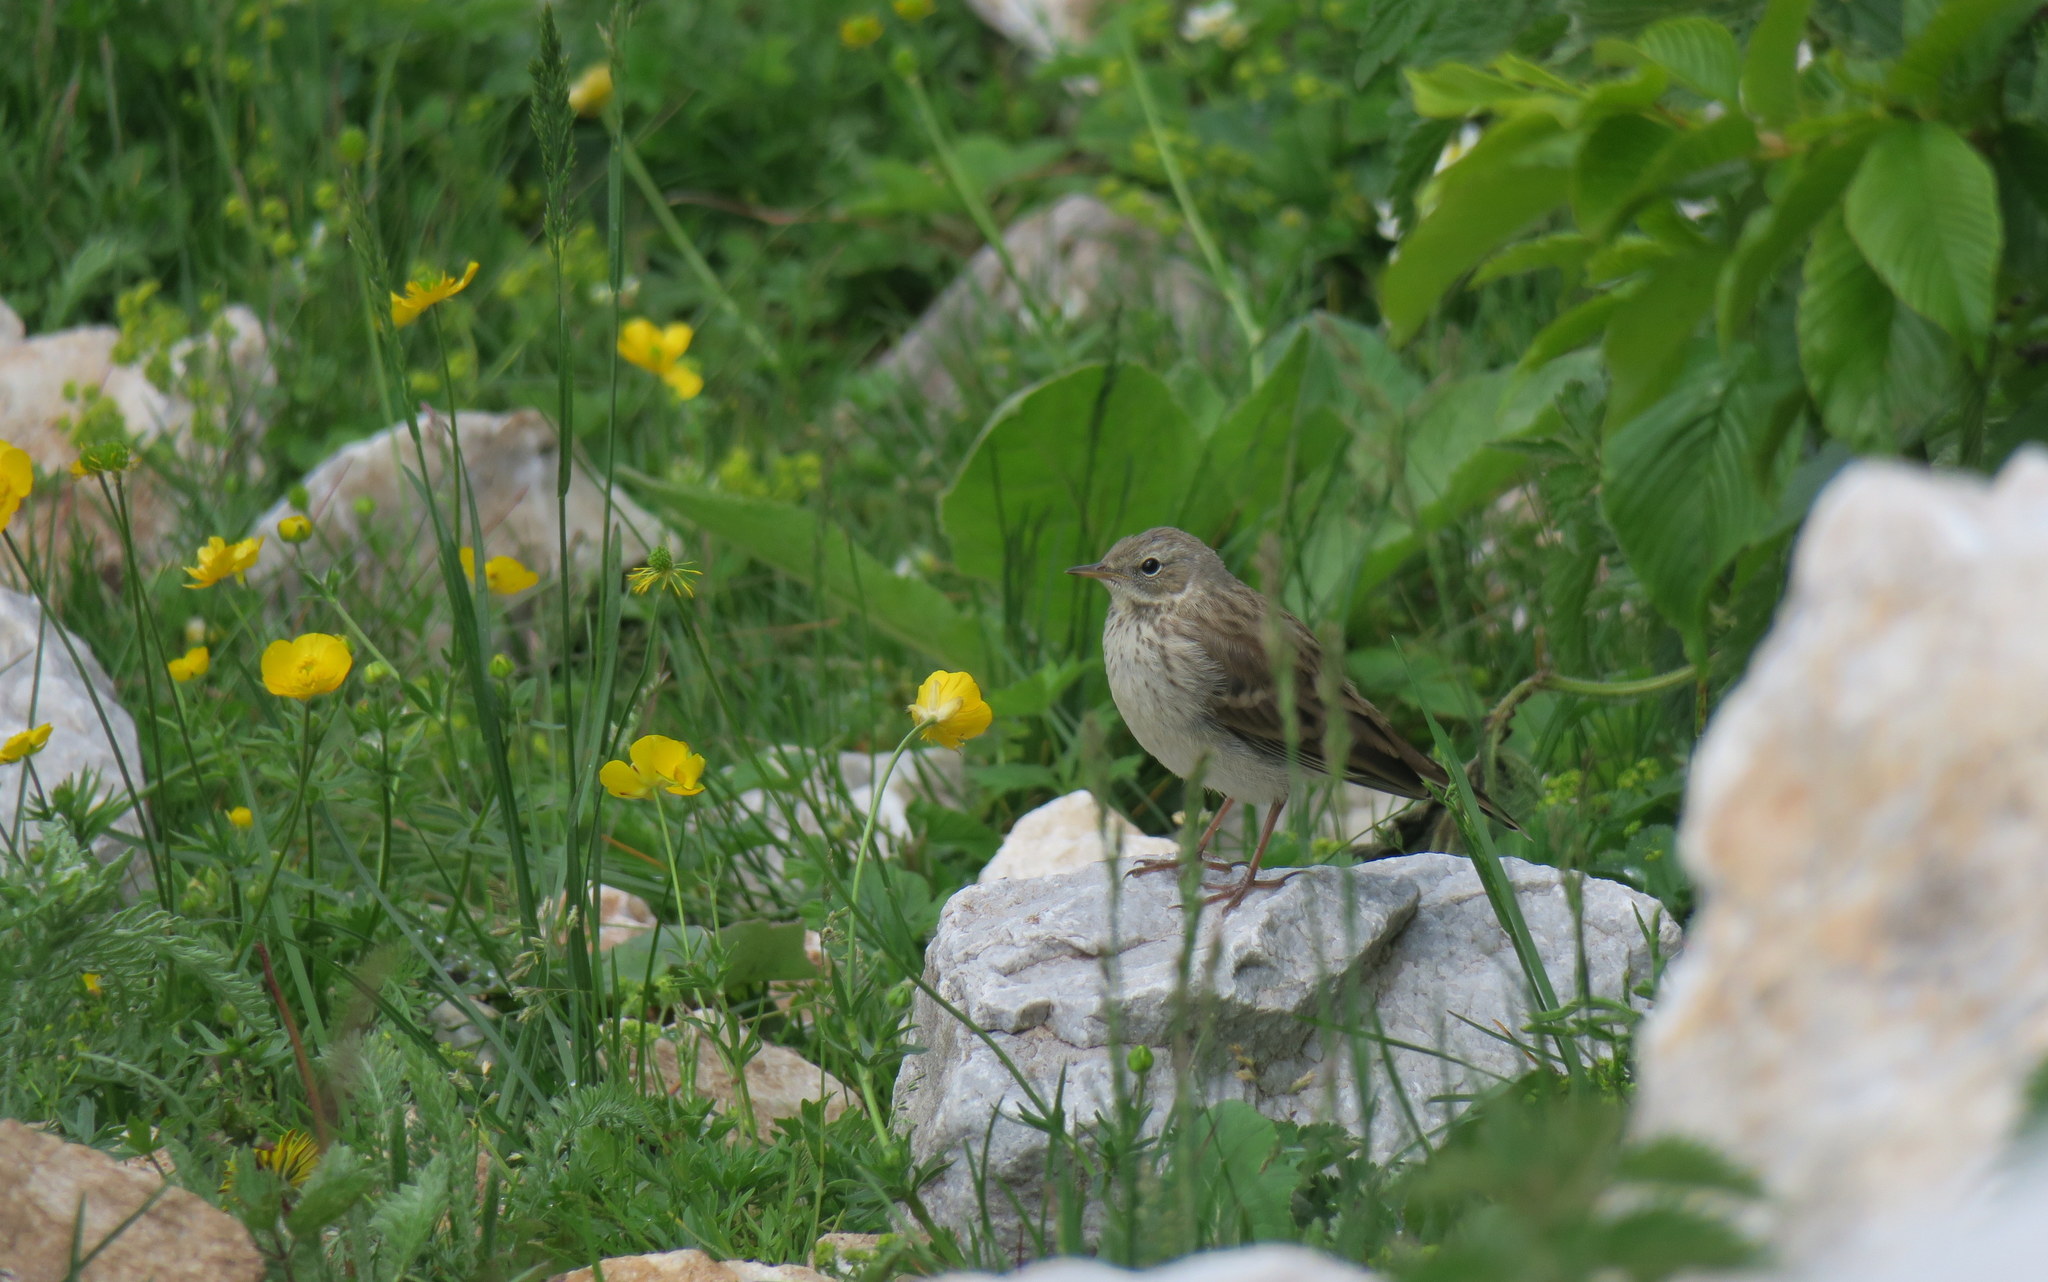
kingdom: Animalia
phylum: Chordata
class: Aves
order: Passeriformes
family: Motacillidae
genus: Anthus
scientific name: Anthus spinoletta
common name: Water pipit
